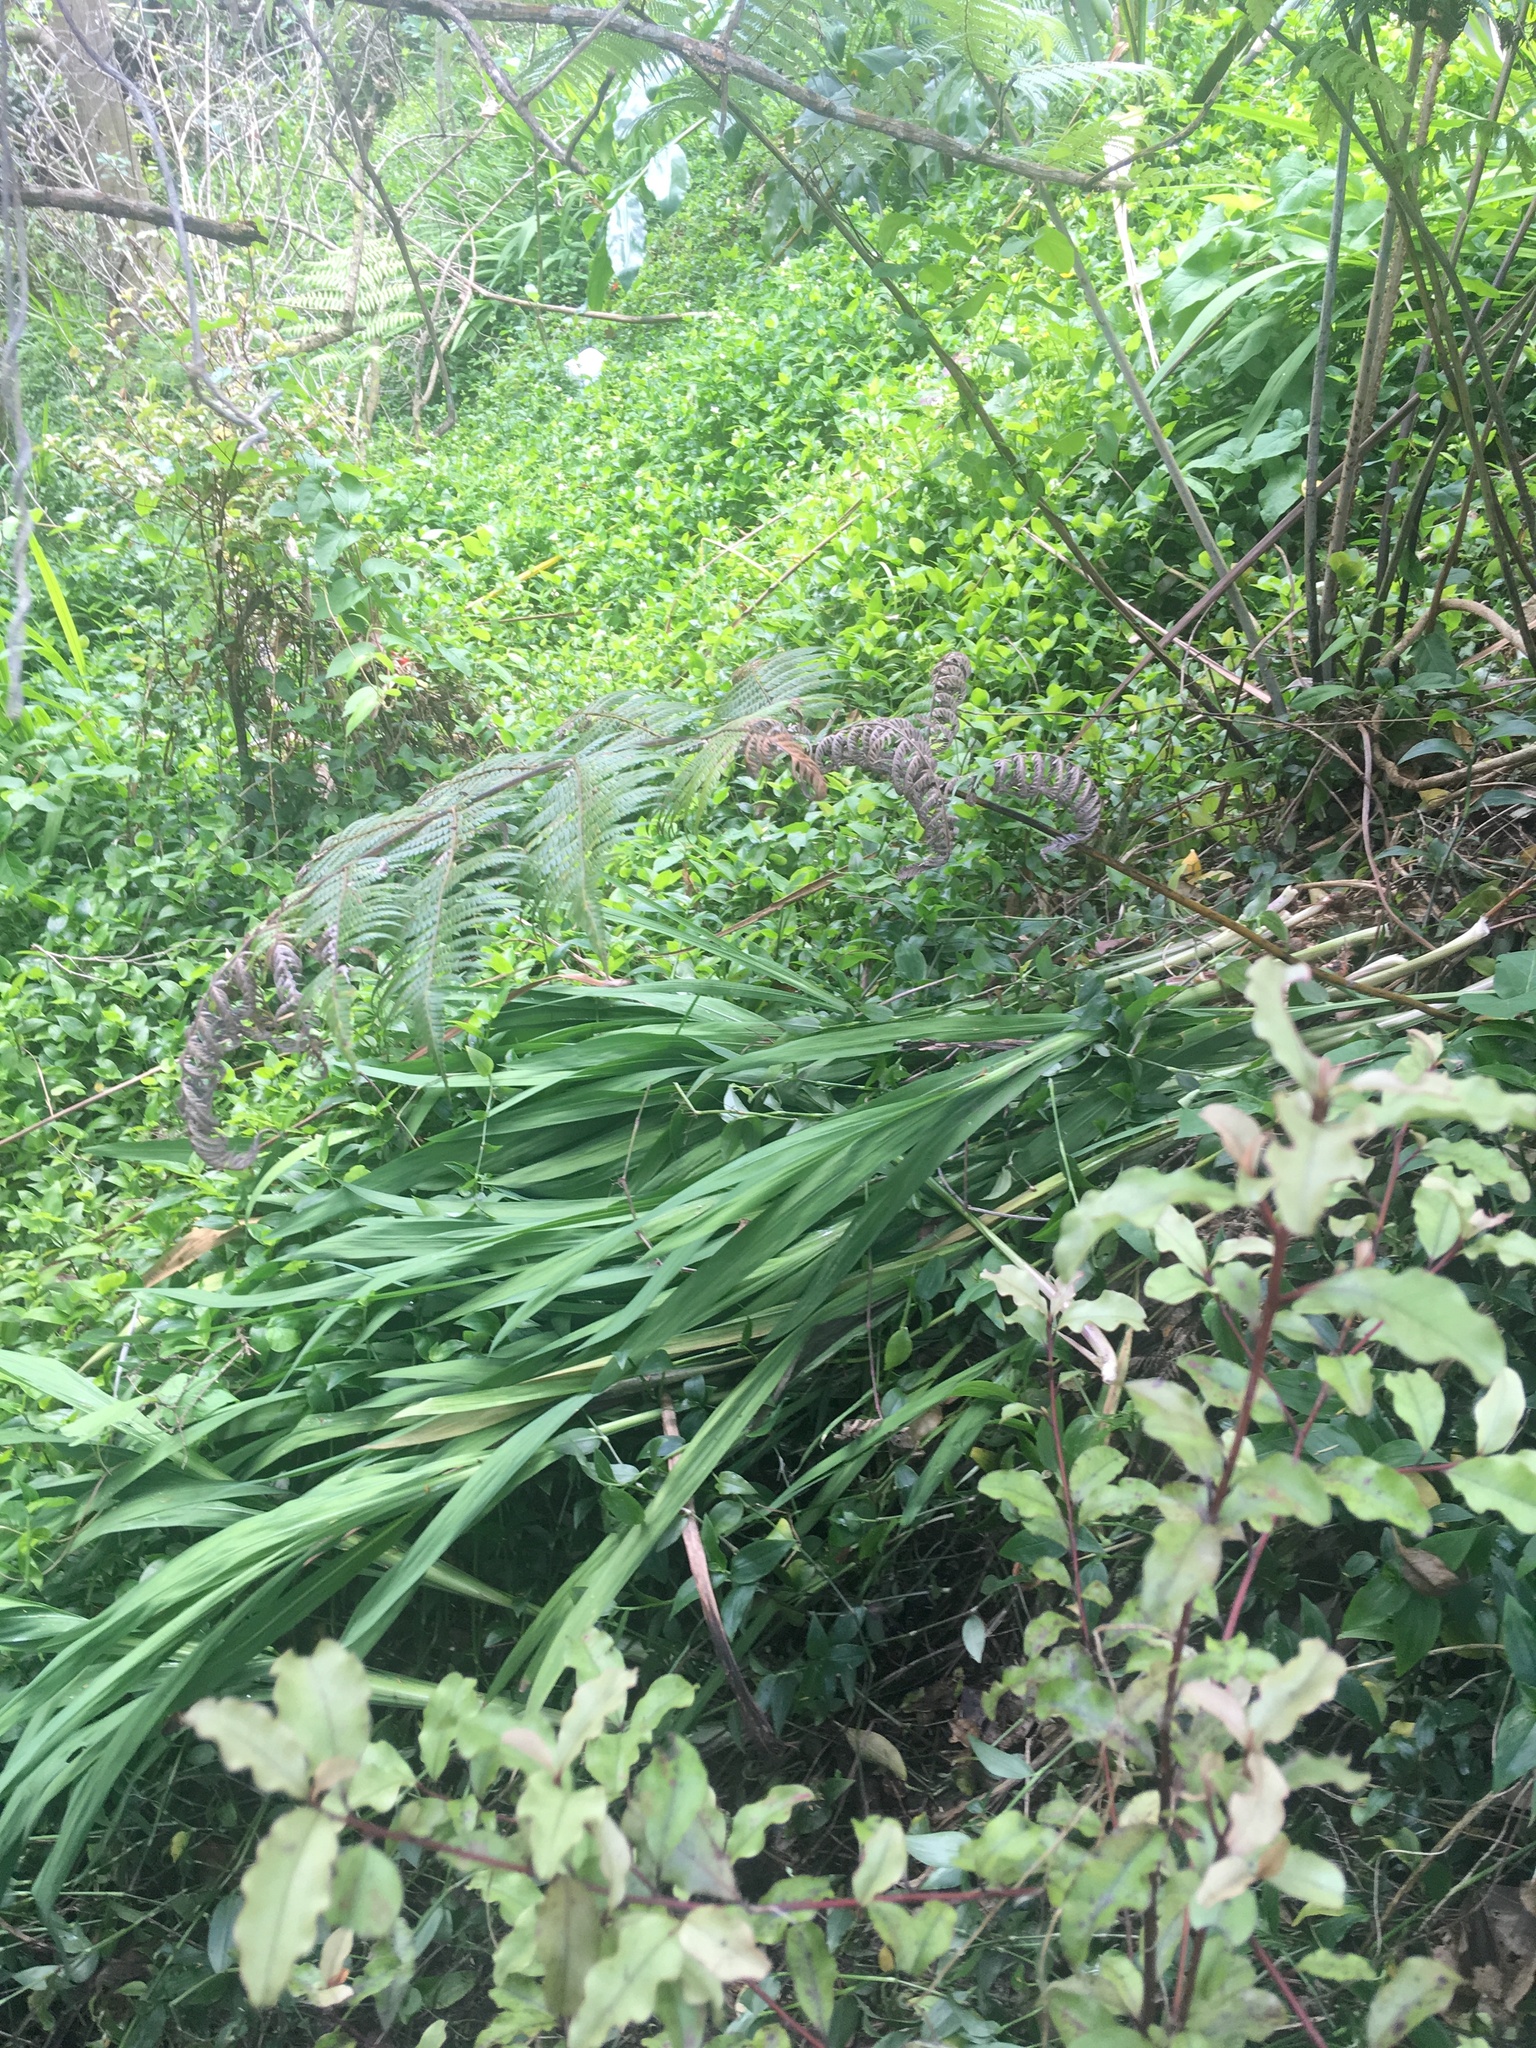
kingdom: Plantae
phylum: Tracheophyta
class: Liliopsida
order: Asparagales
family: Iridaceae
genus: Crocosmia
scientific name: Crocosmia crocosmiiflora
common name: Montbretia
